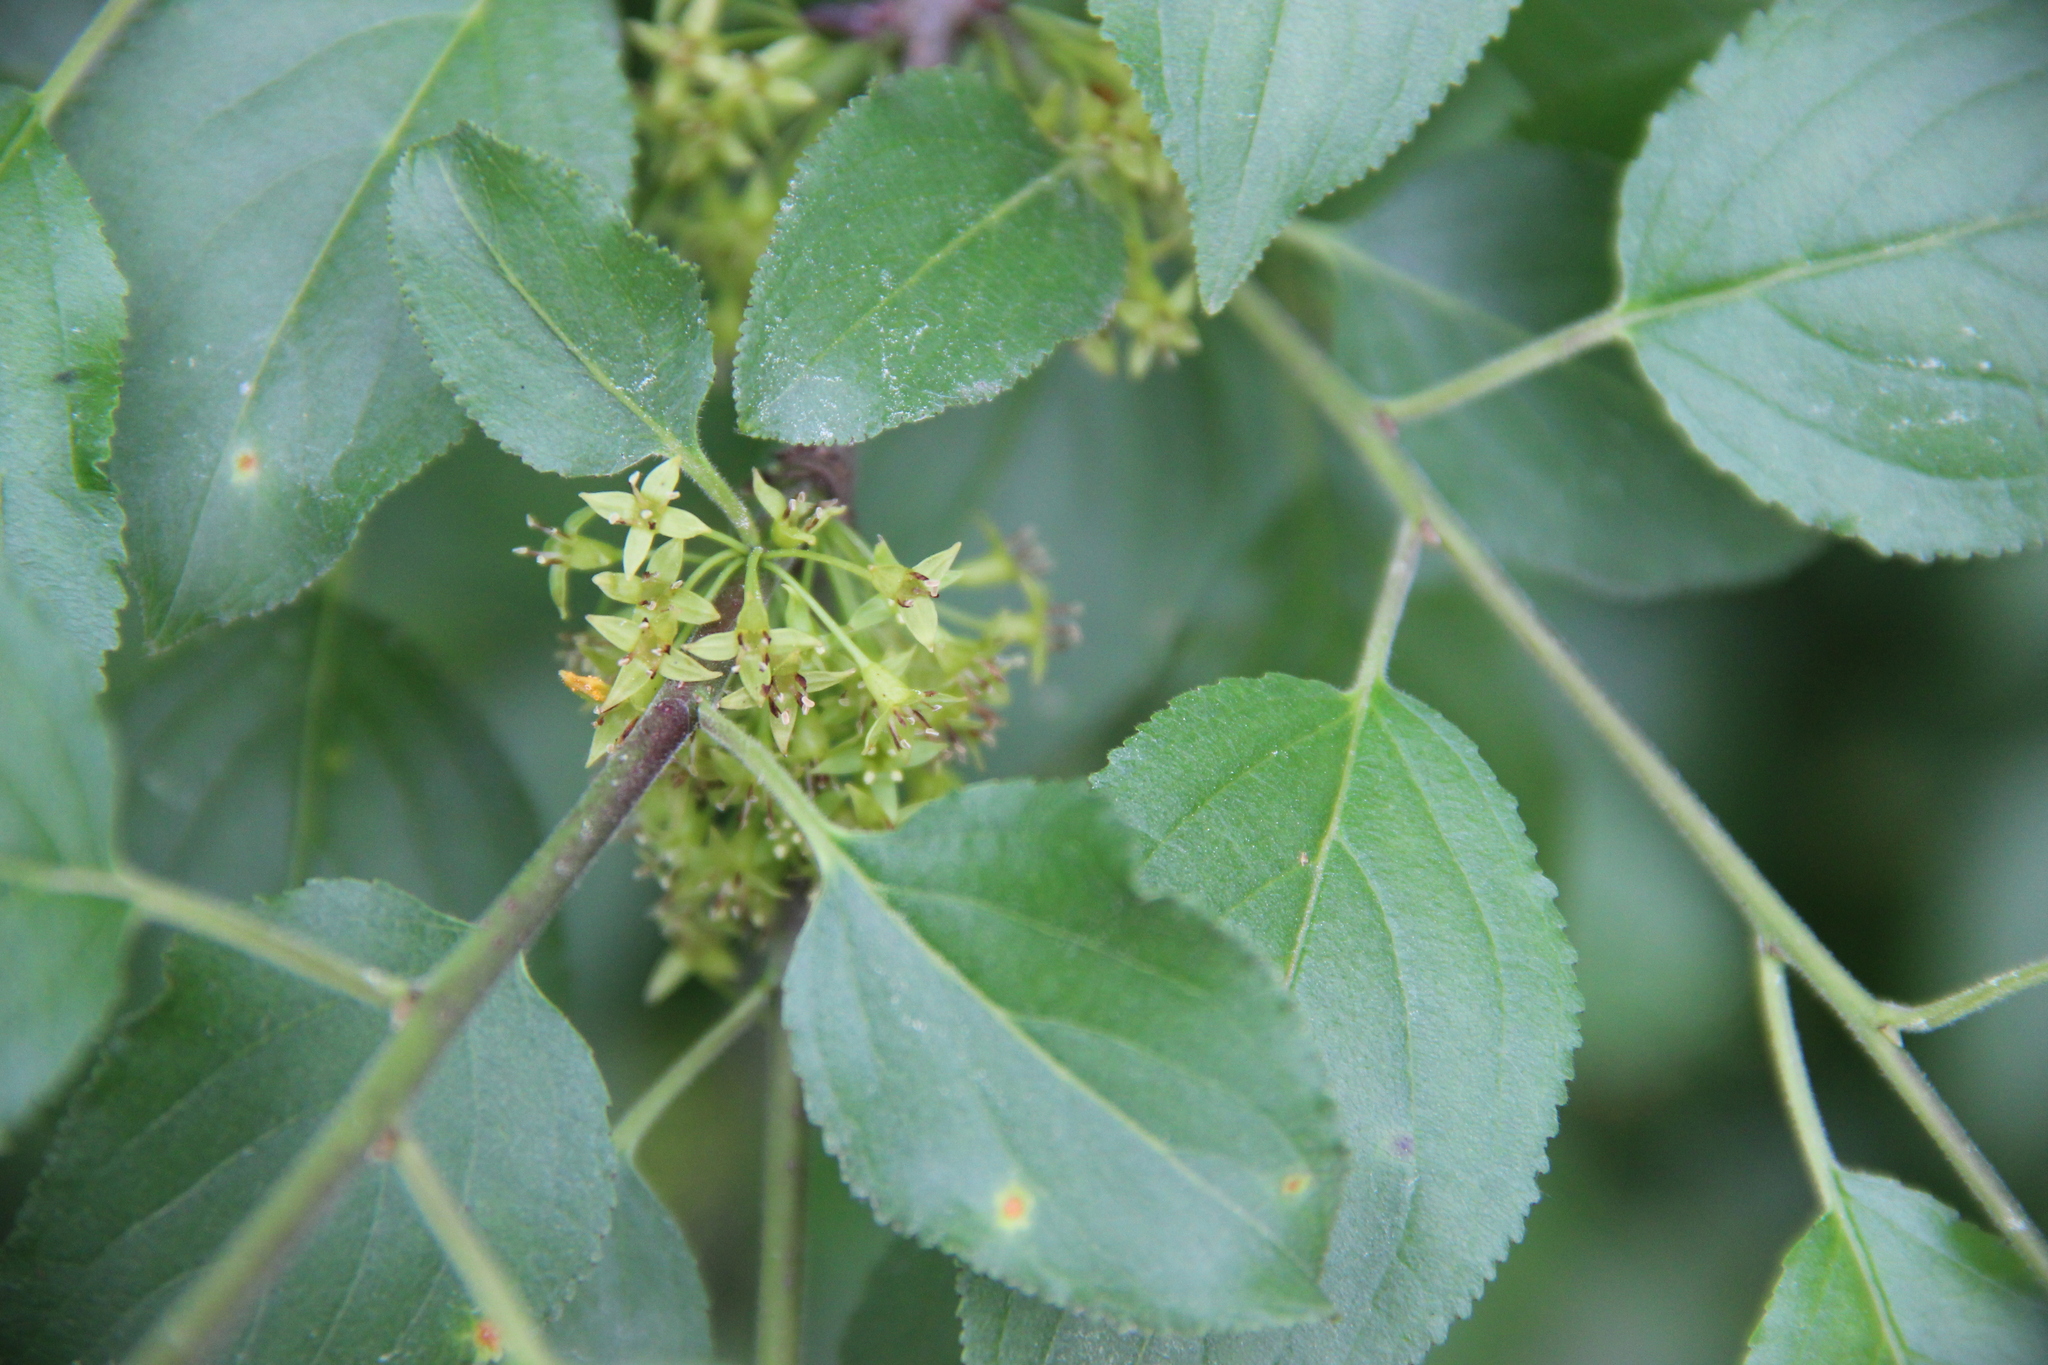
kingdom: Plantae
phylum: Tracheophyta
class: Magnoliopsida
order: Rosales
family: Rhamnaceae
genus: Rhamnus
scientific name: Rhamnus cathartica
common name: Common buckthorn
